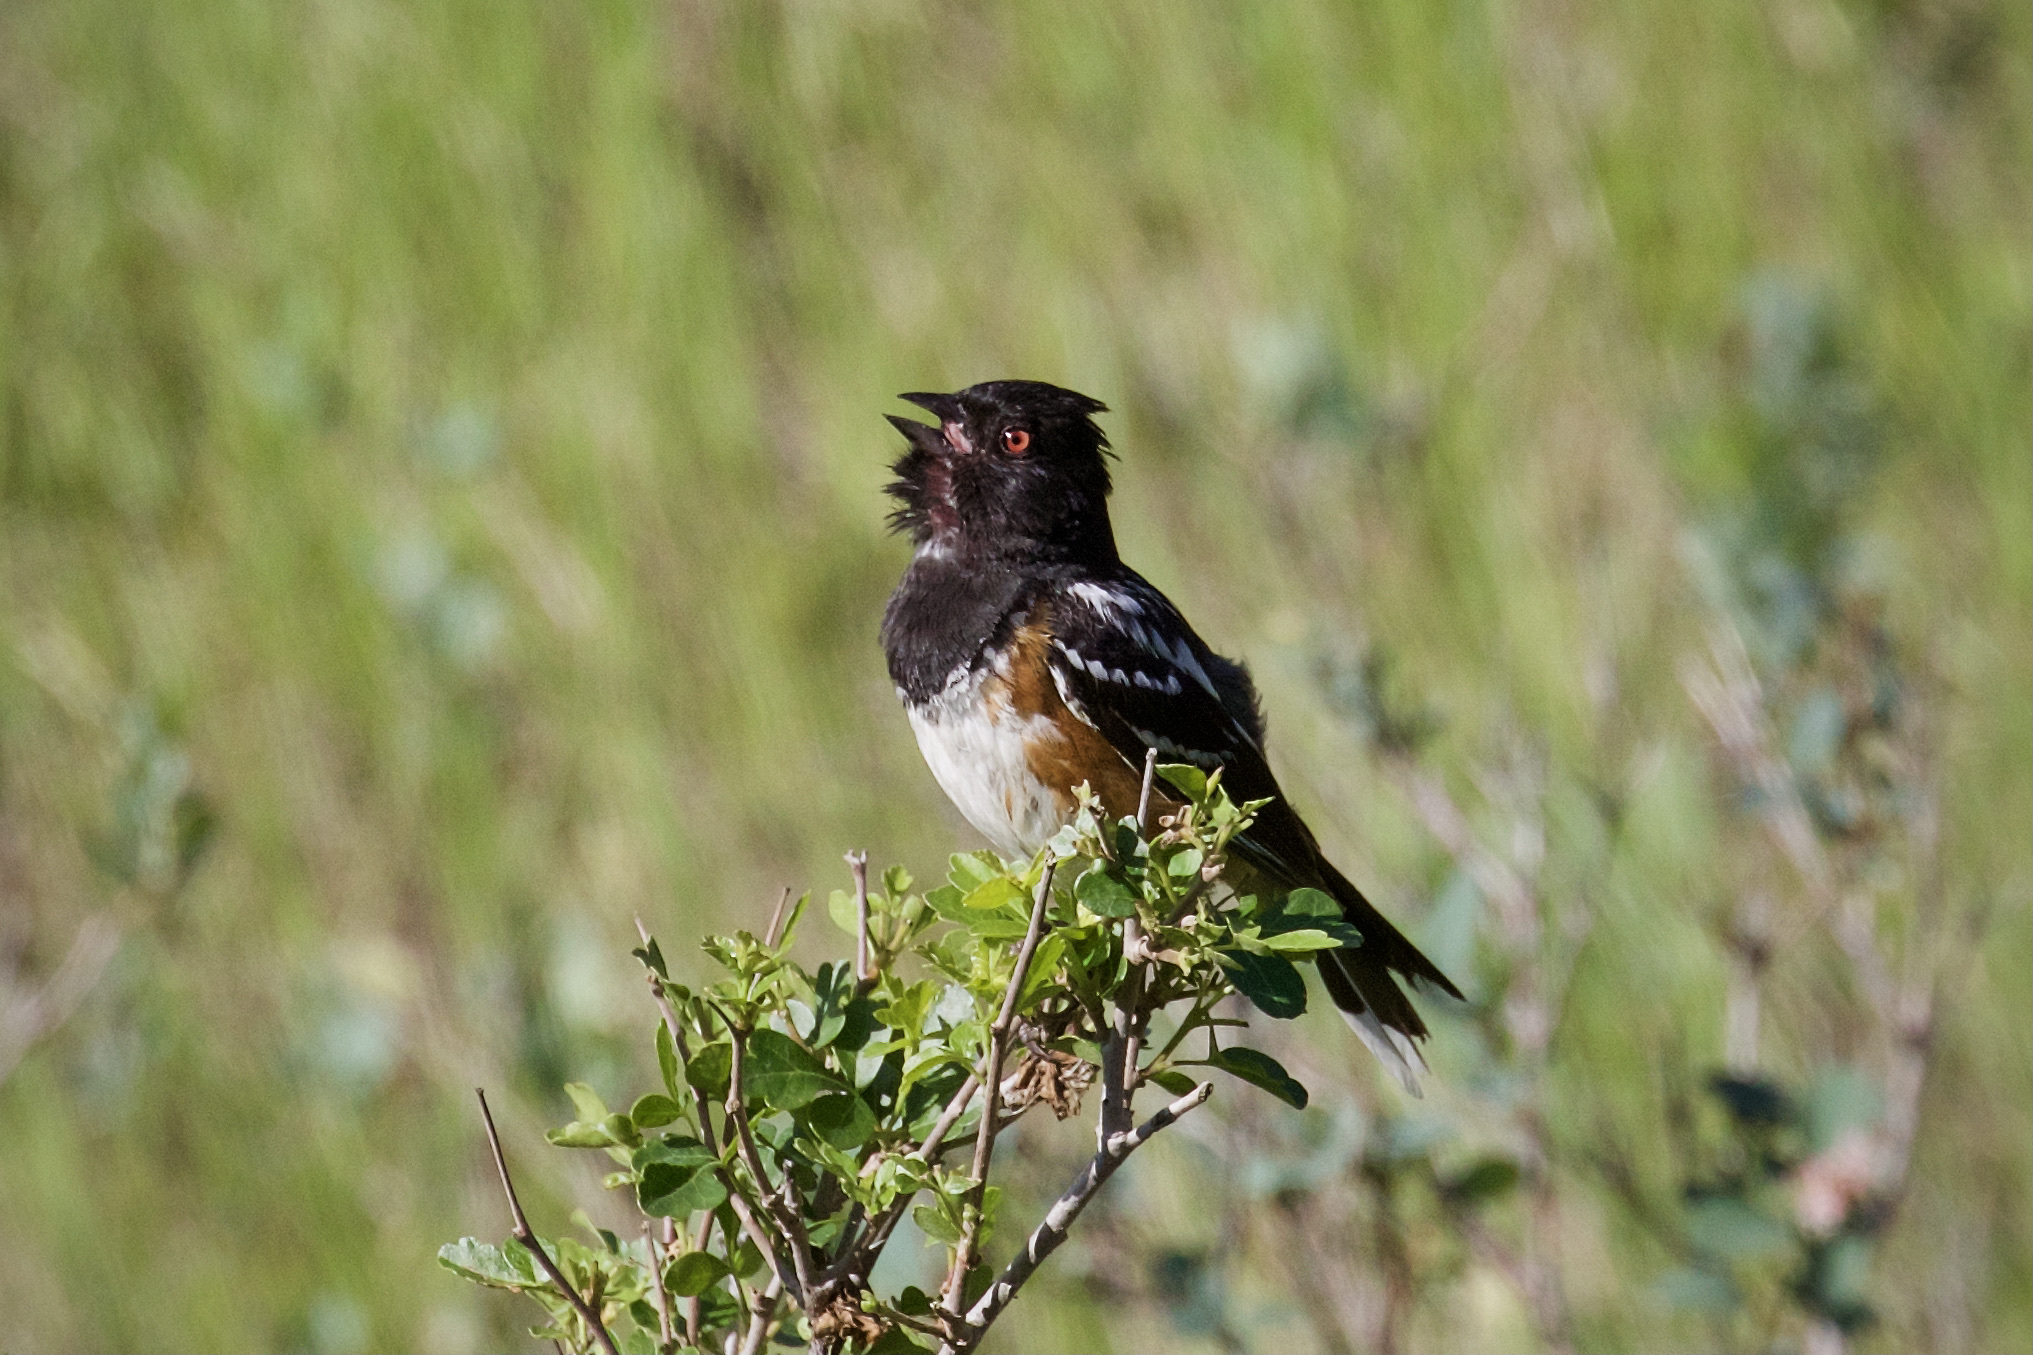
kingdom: Animalia
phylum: Chordata
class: Aves
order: Passeriformes
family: Passerellidae
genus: Pipilo
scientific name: Pipilo maculatus
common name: Spotted towhee
